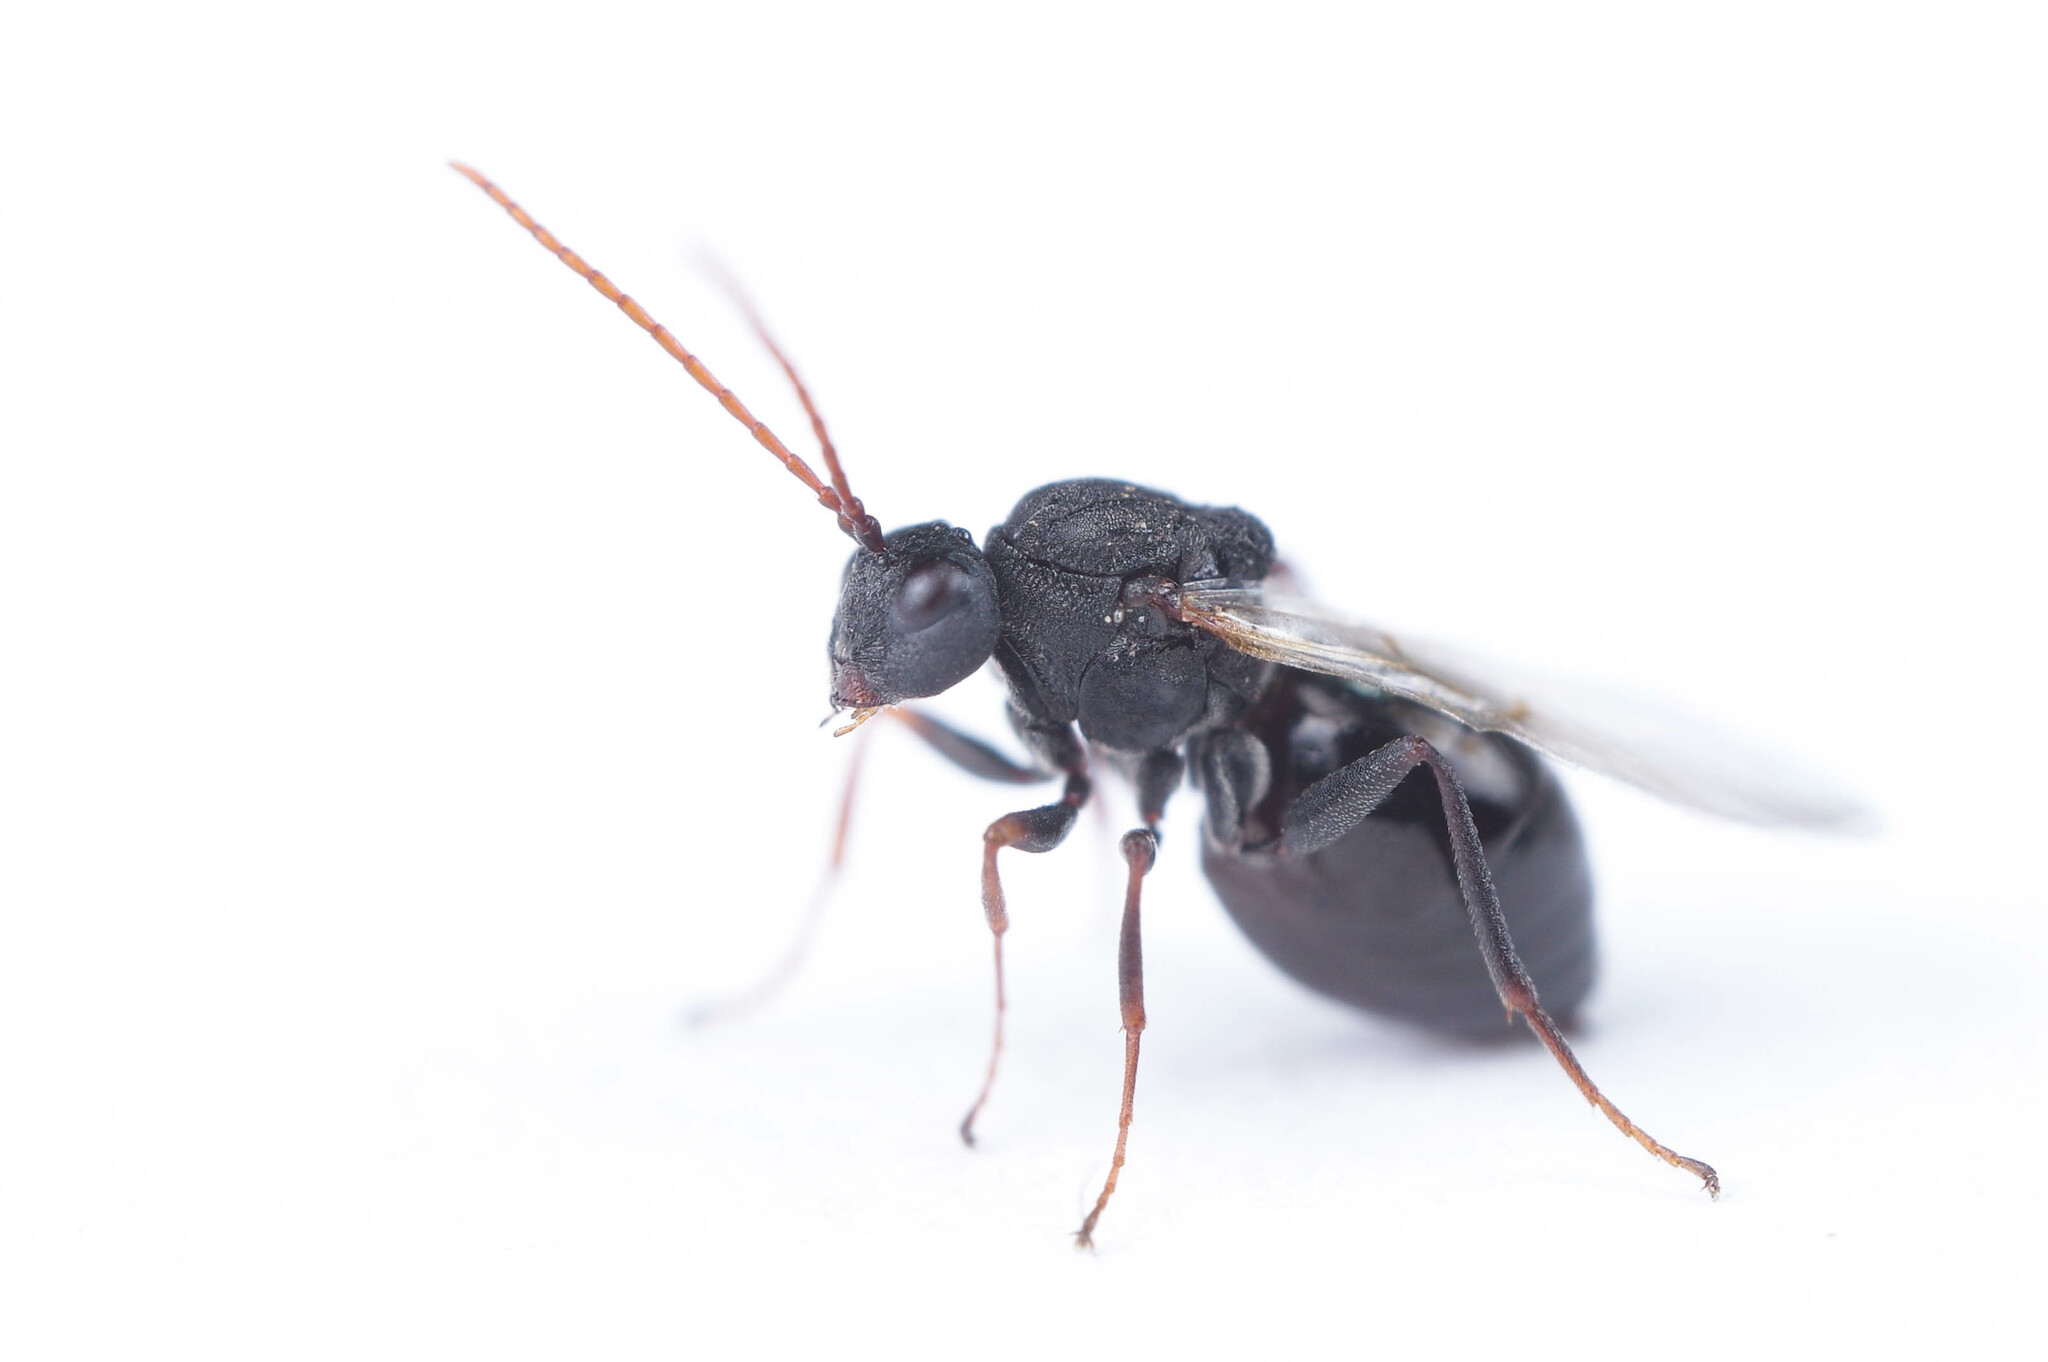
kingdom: Animalia
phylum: Arthropoda
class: Insecta
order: Hymenoptera
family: Cynipidae
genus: Antistrophus
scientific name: Antistrophus silphii
